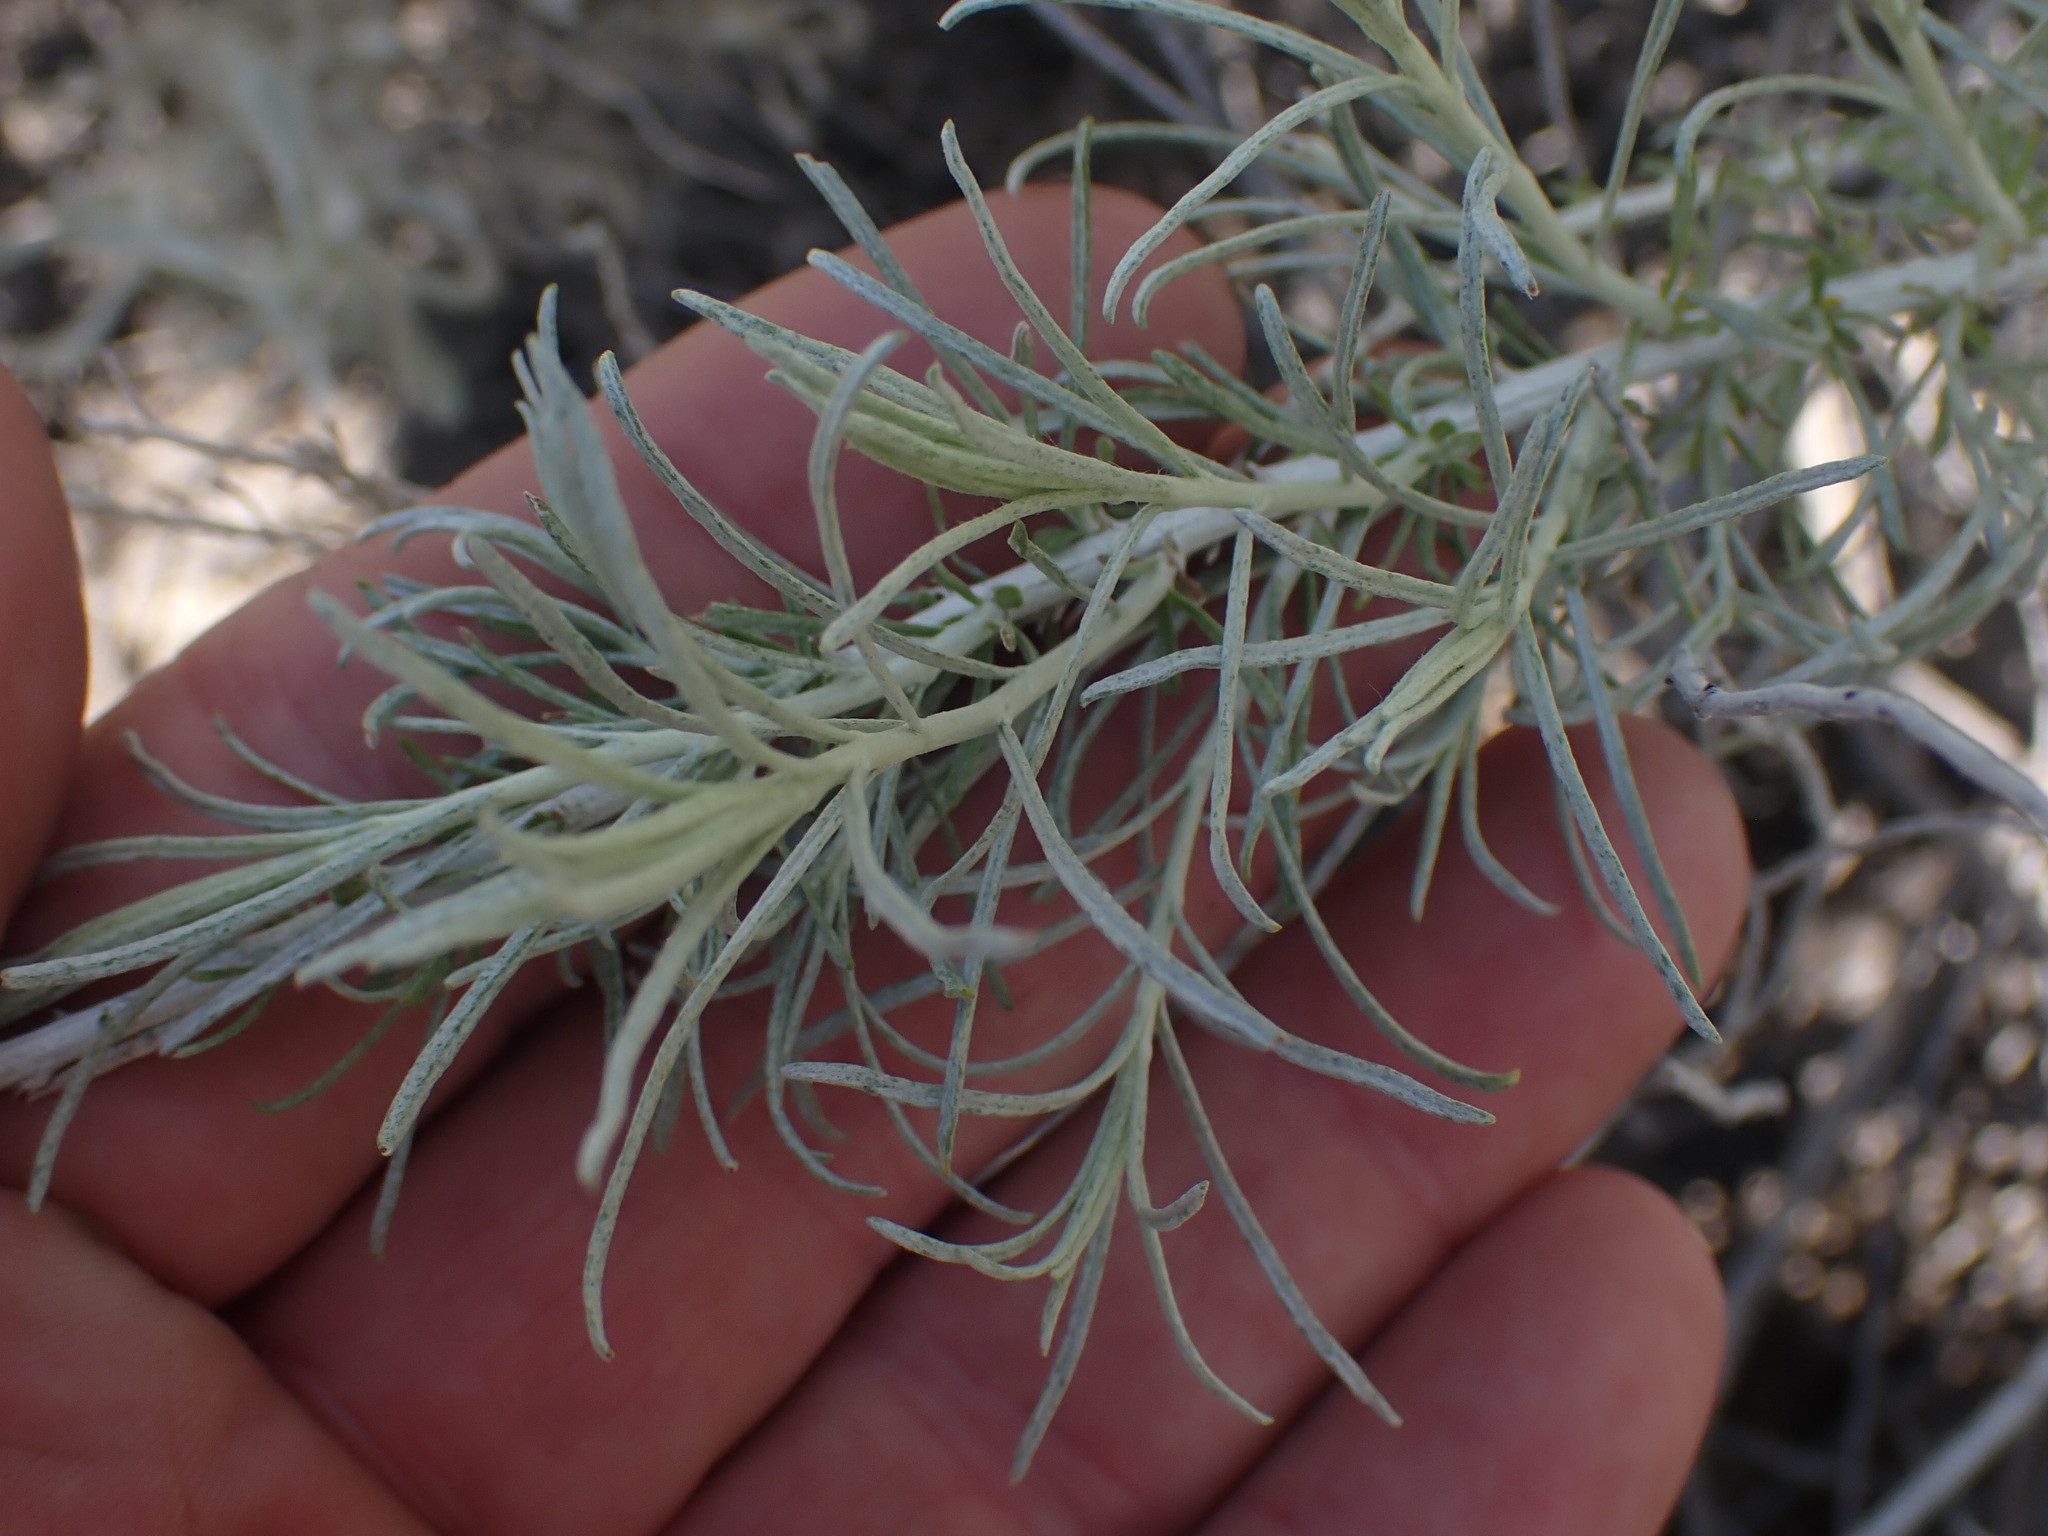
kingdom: Plantae
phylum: Tracheophyta
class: Magnoliopsida
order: Asterales
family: Asteraceae
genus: Ericameria
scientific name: Ericameria nauseosa
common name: Rubber rabbitbrush
